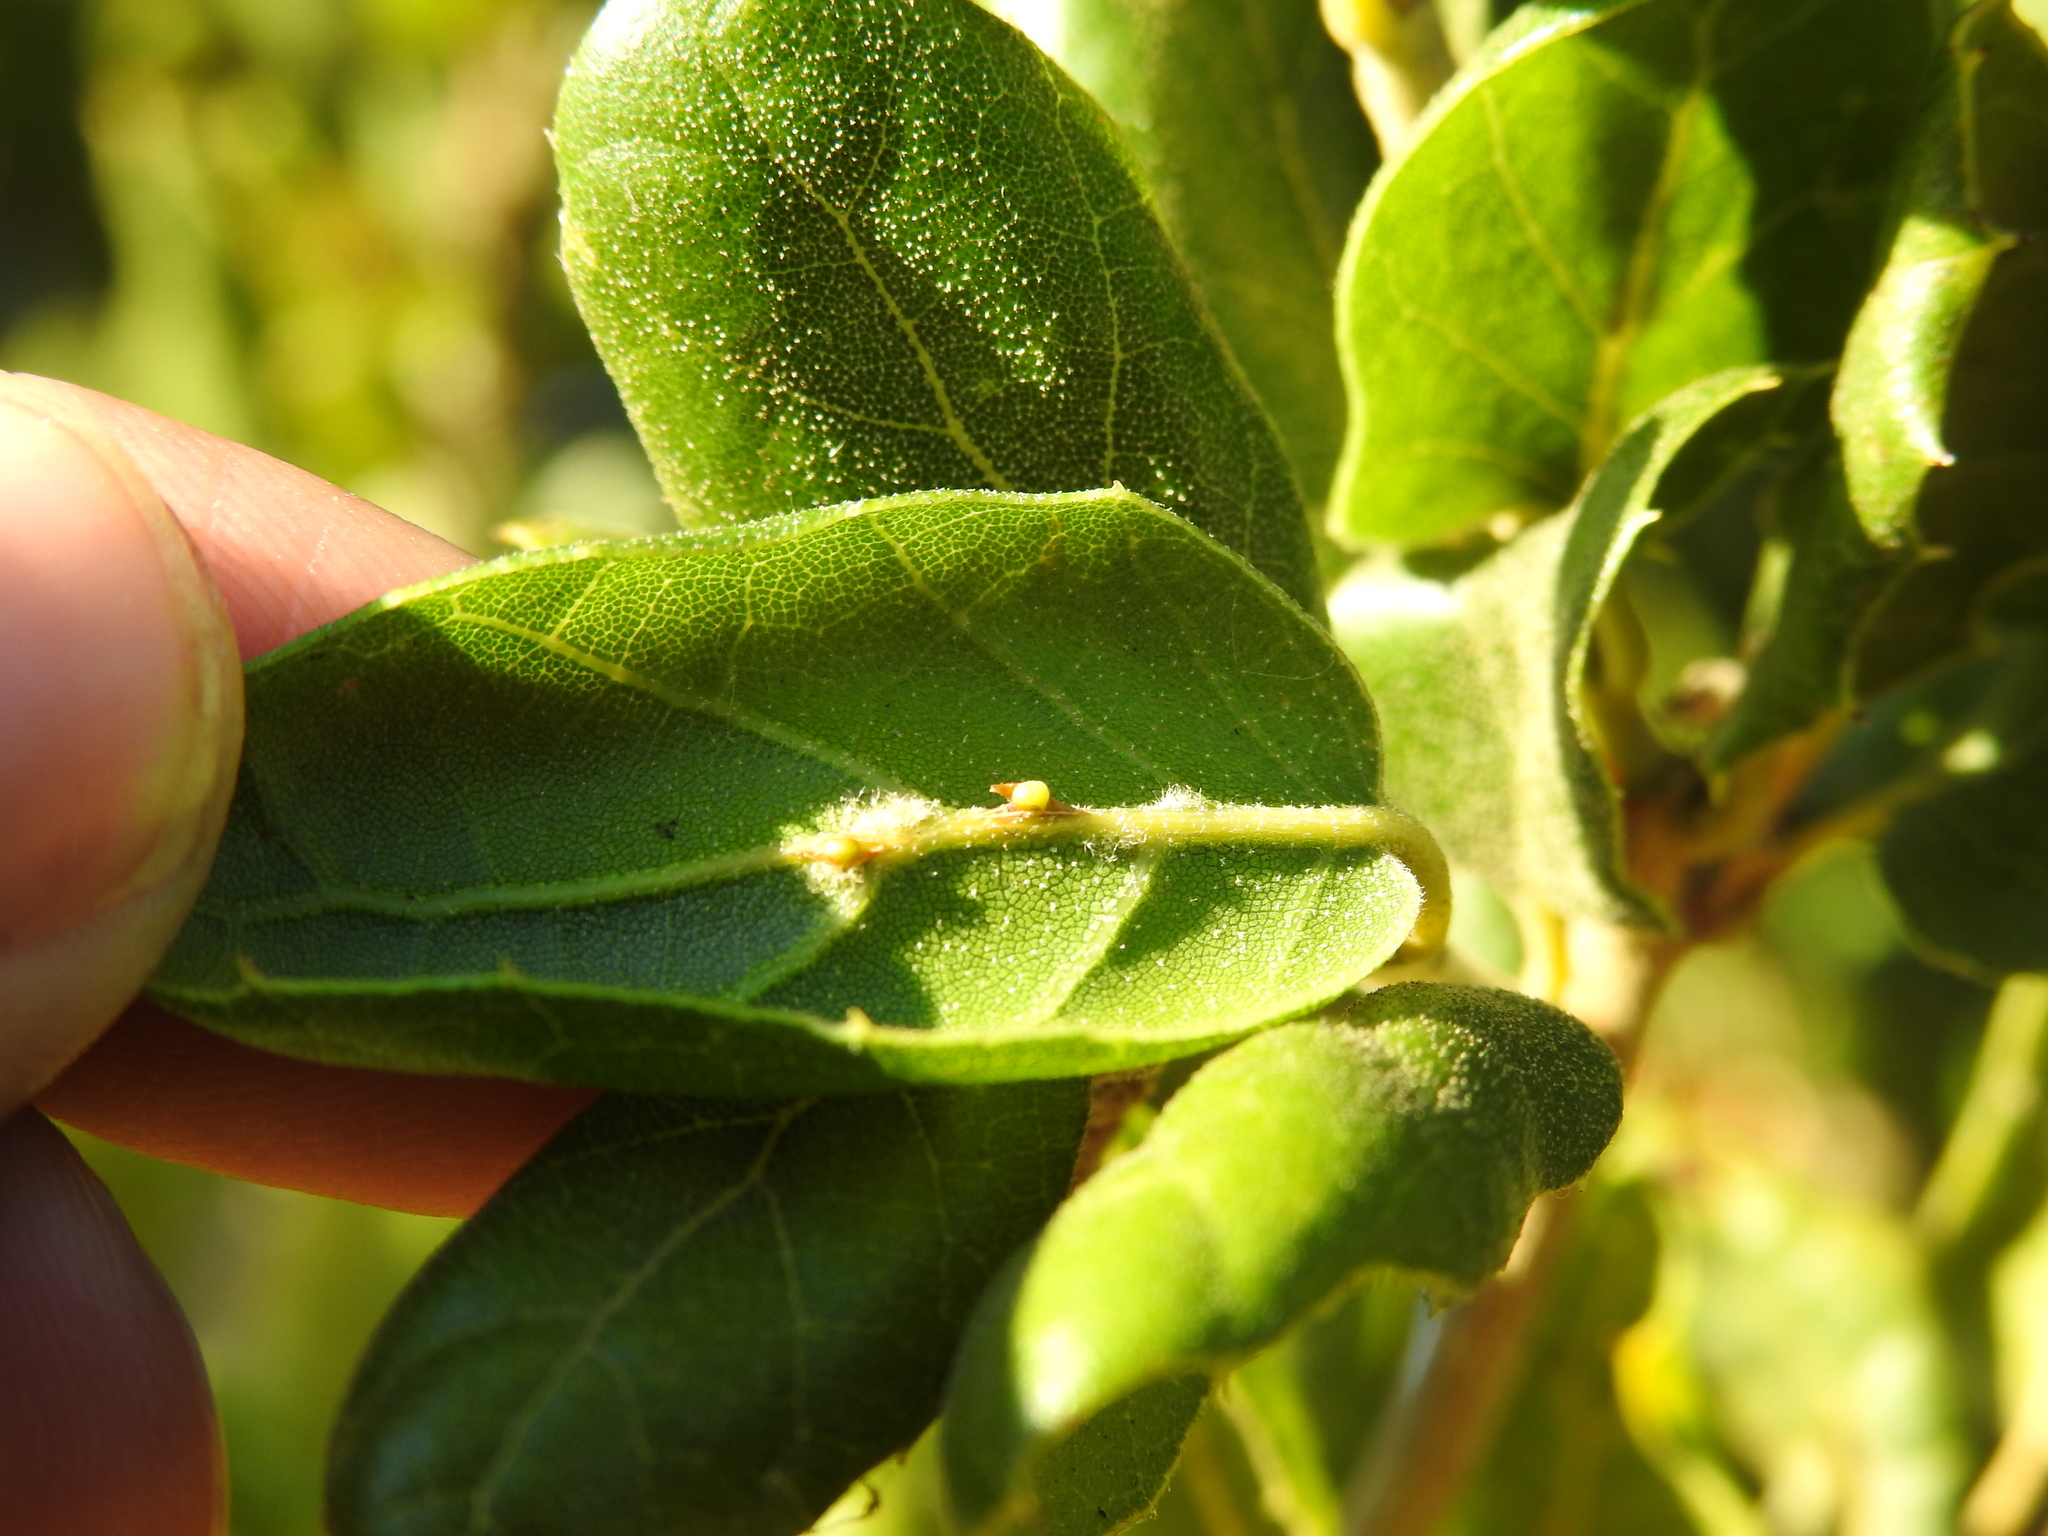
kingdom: Animalia
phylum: Arthropoda
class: Insecta
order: Hymenoptera
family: Cynipidae
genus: Callirhytis
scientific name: Callirhytis
